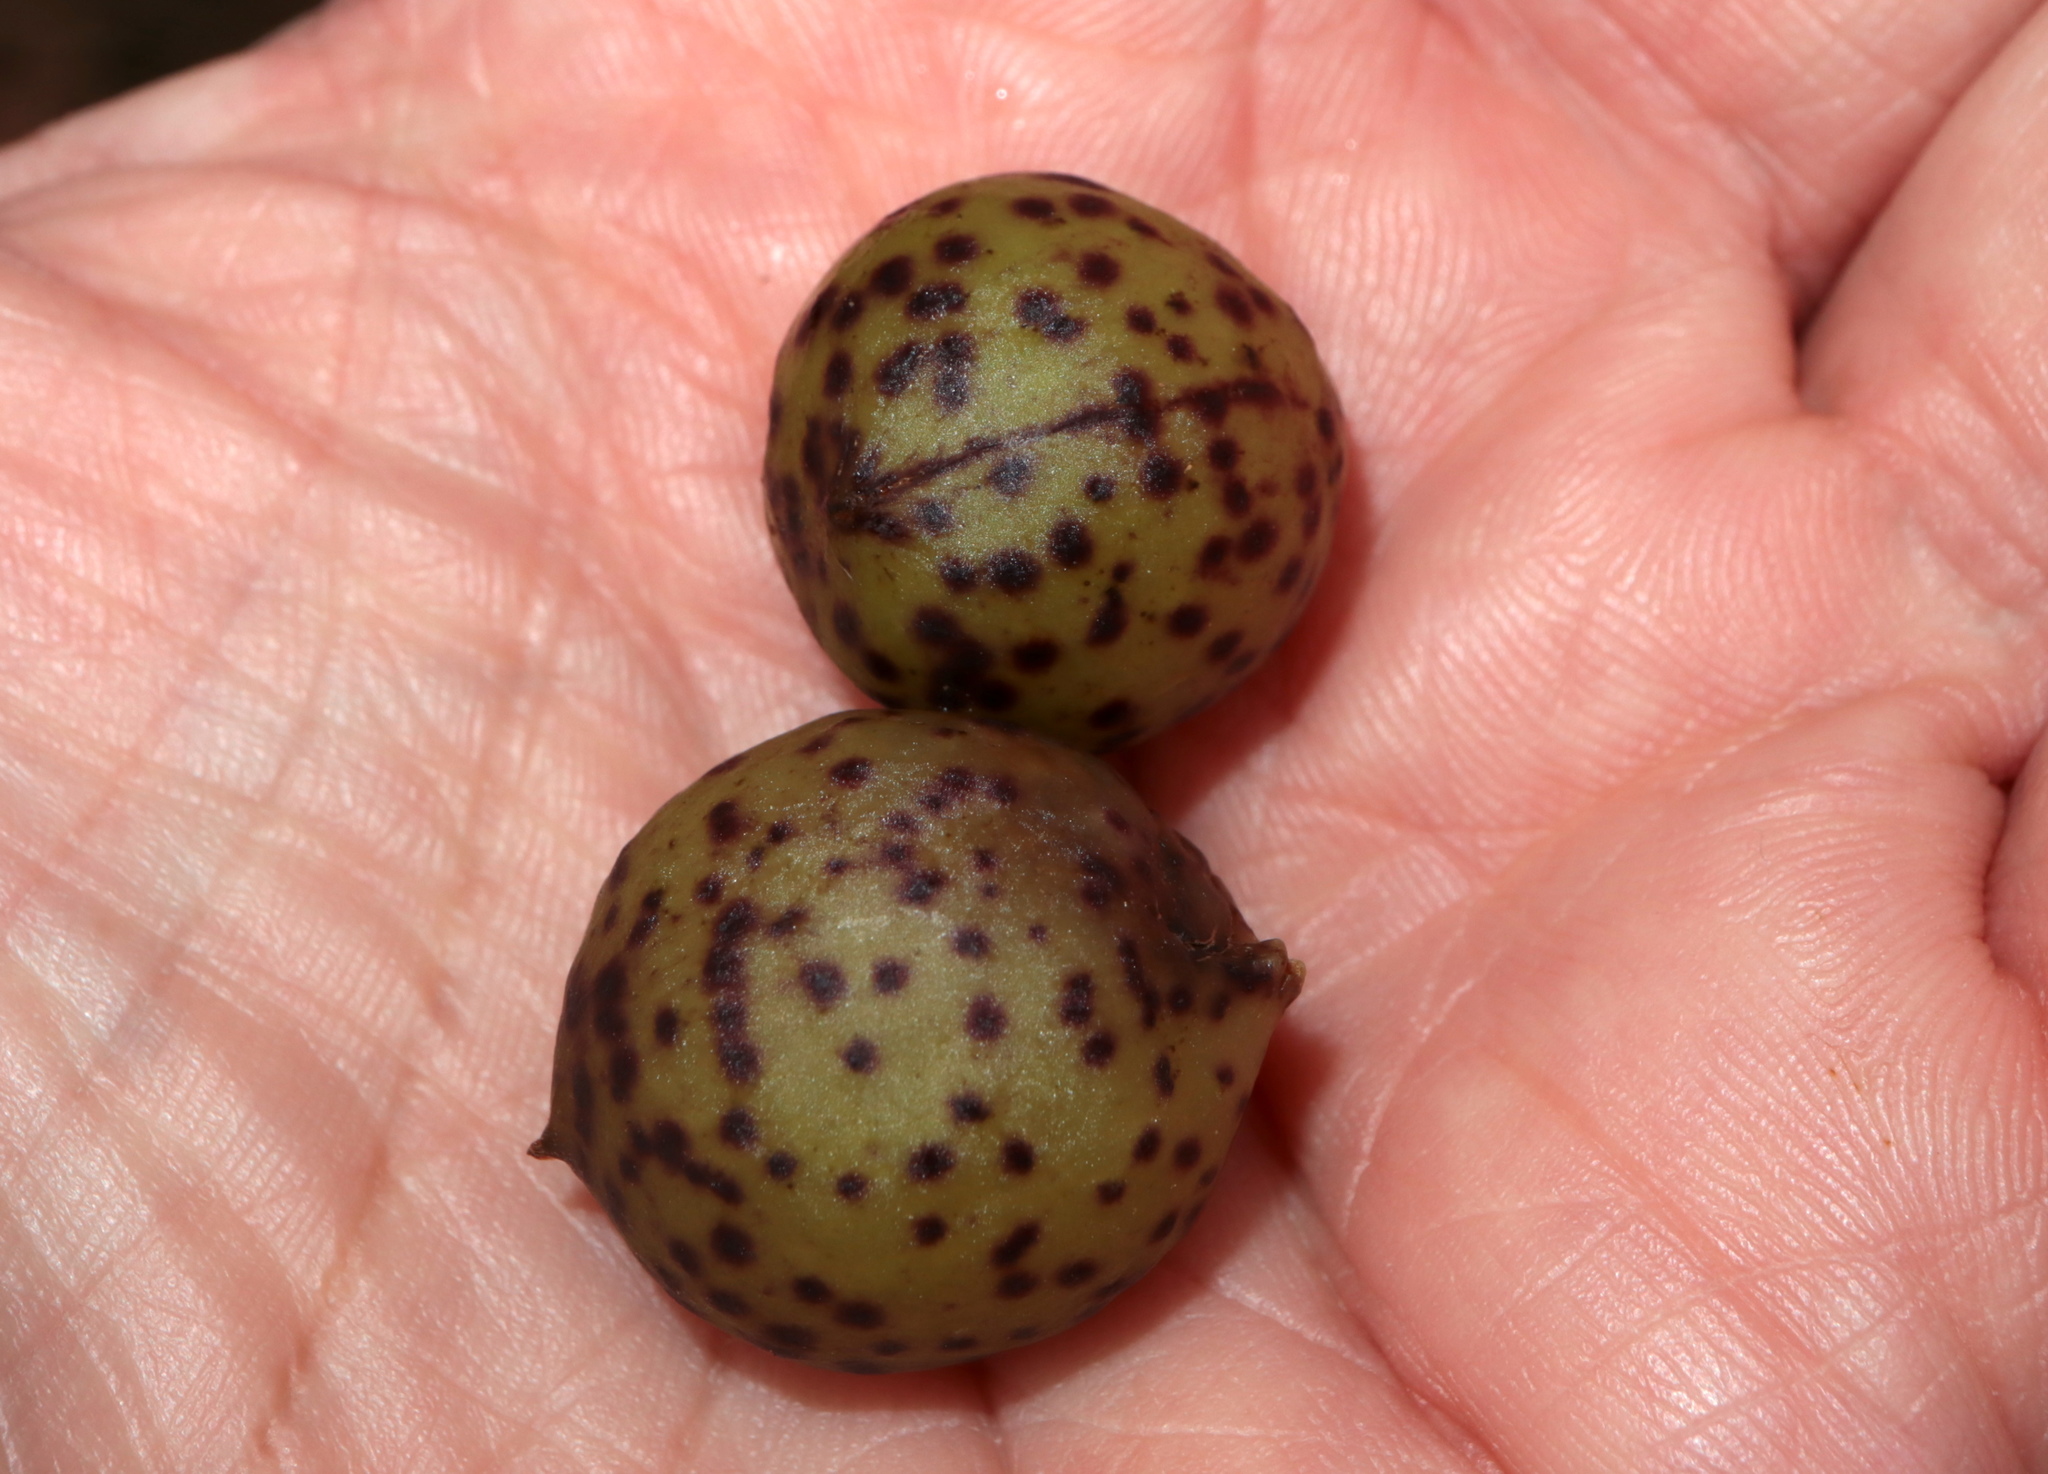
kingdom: Animalia
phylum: Arthropoda
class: Insecta
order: Hymenoptera
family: Cynipidae
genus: Amphibolips
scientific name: Amphibolips
